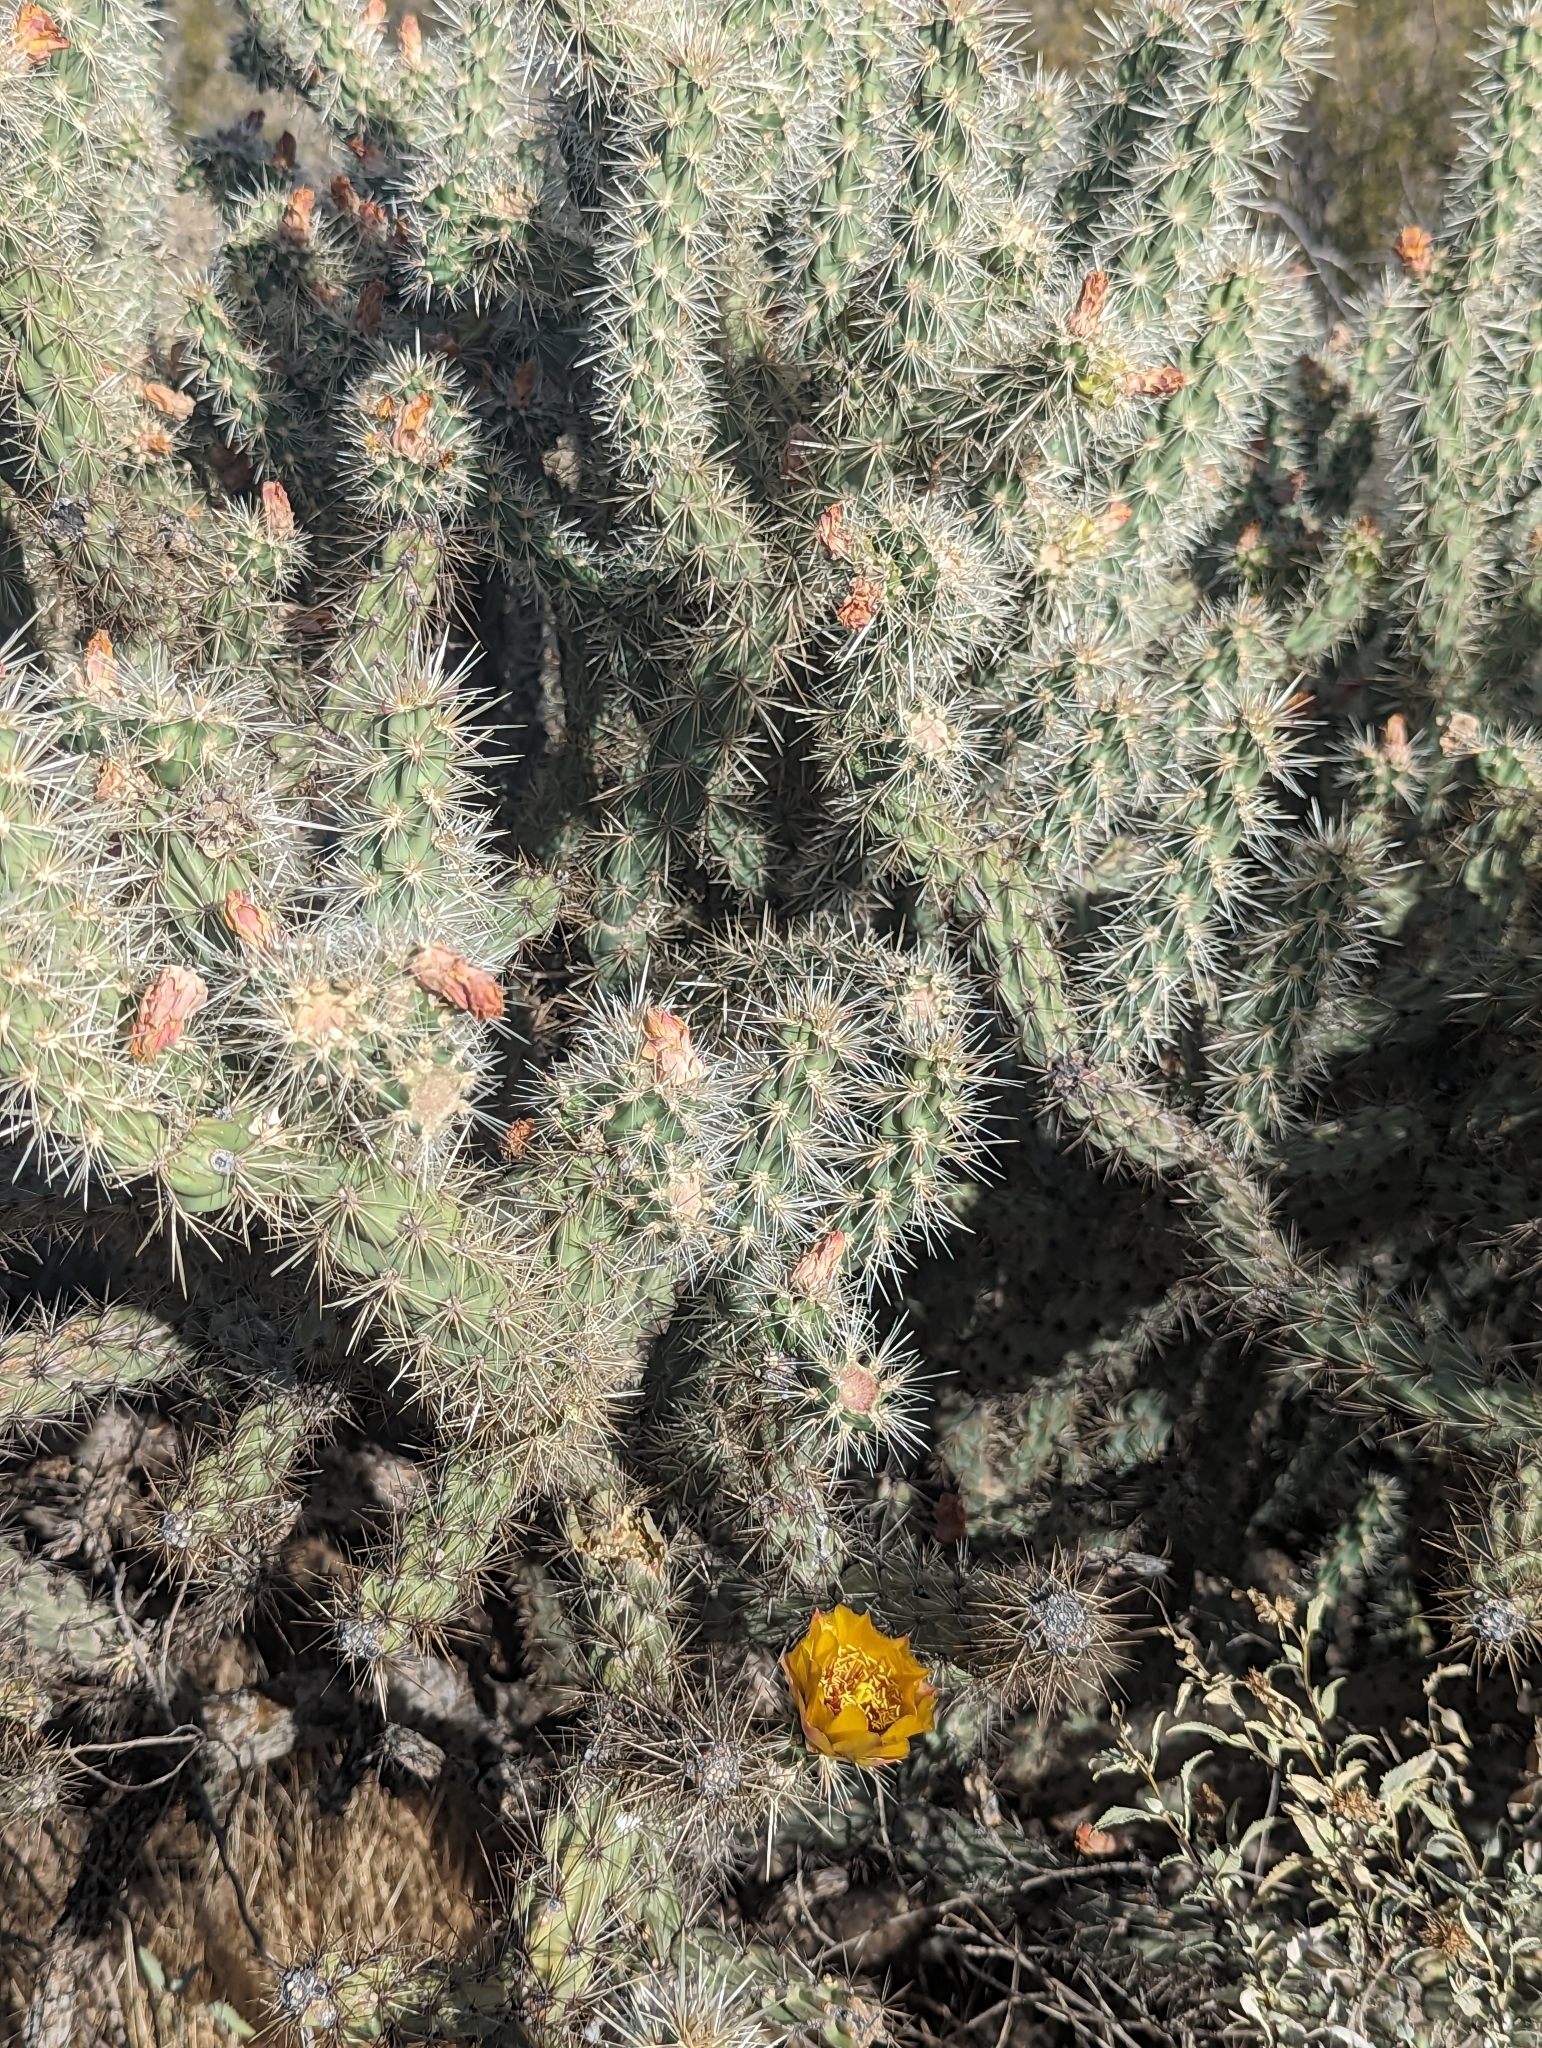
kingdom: Plantae
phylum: Tracheophyta
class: Magnoliopsida
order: Caryophyllales
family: Cactaceae
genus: Cylindropuntia
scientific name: Cylindropuntia acanthocarpa
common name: Buckhorn cholla
